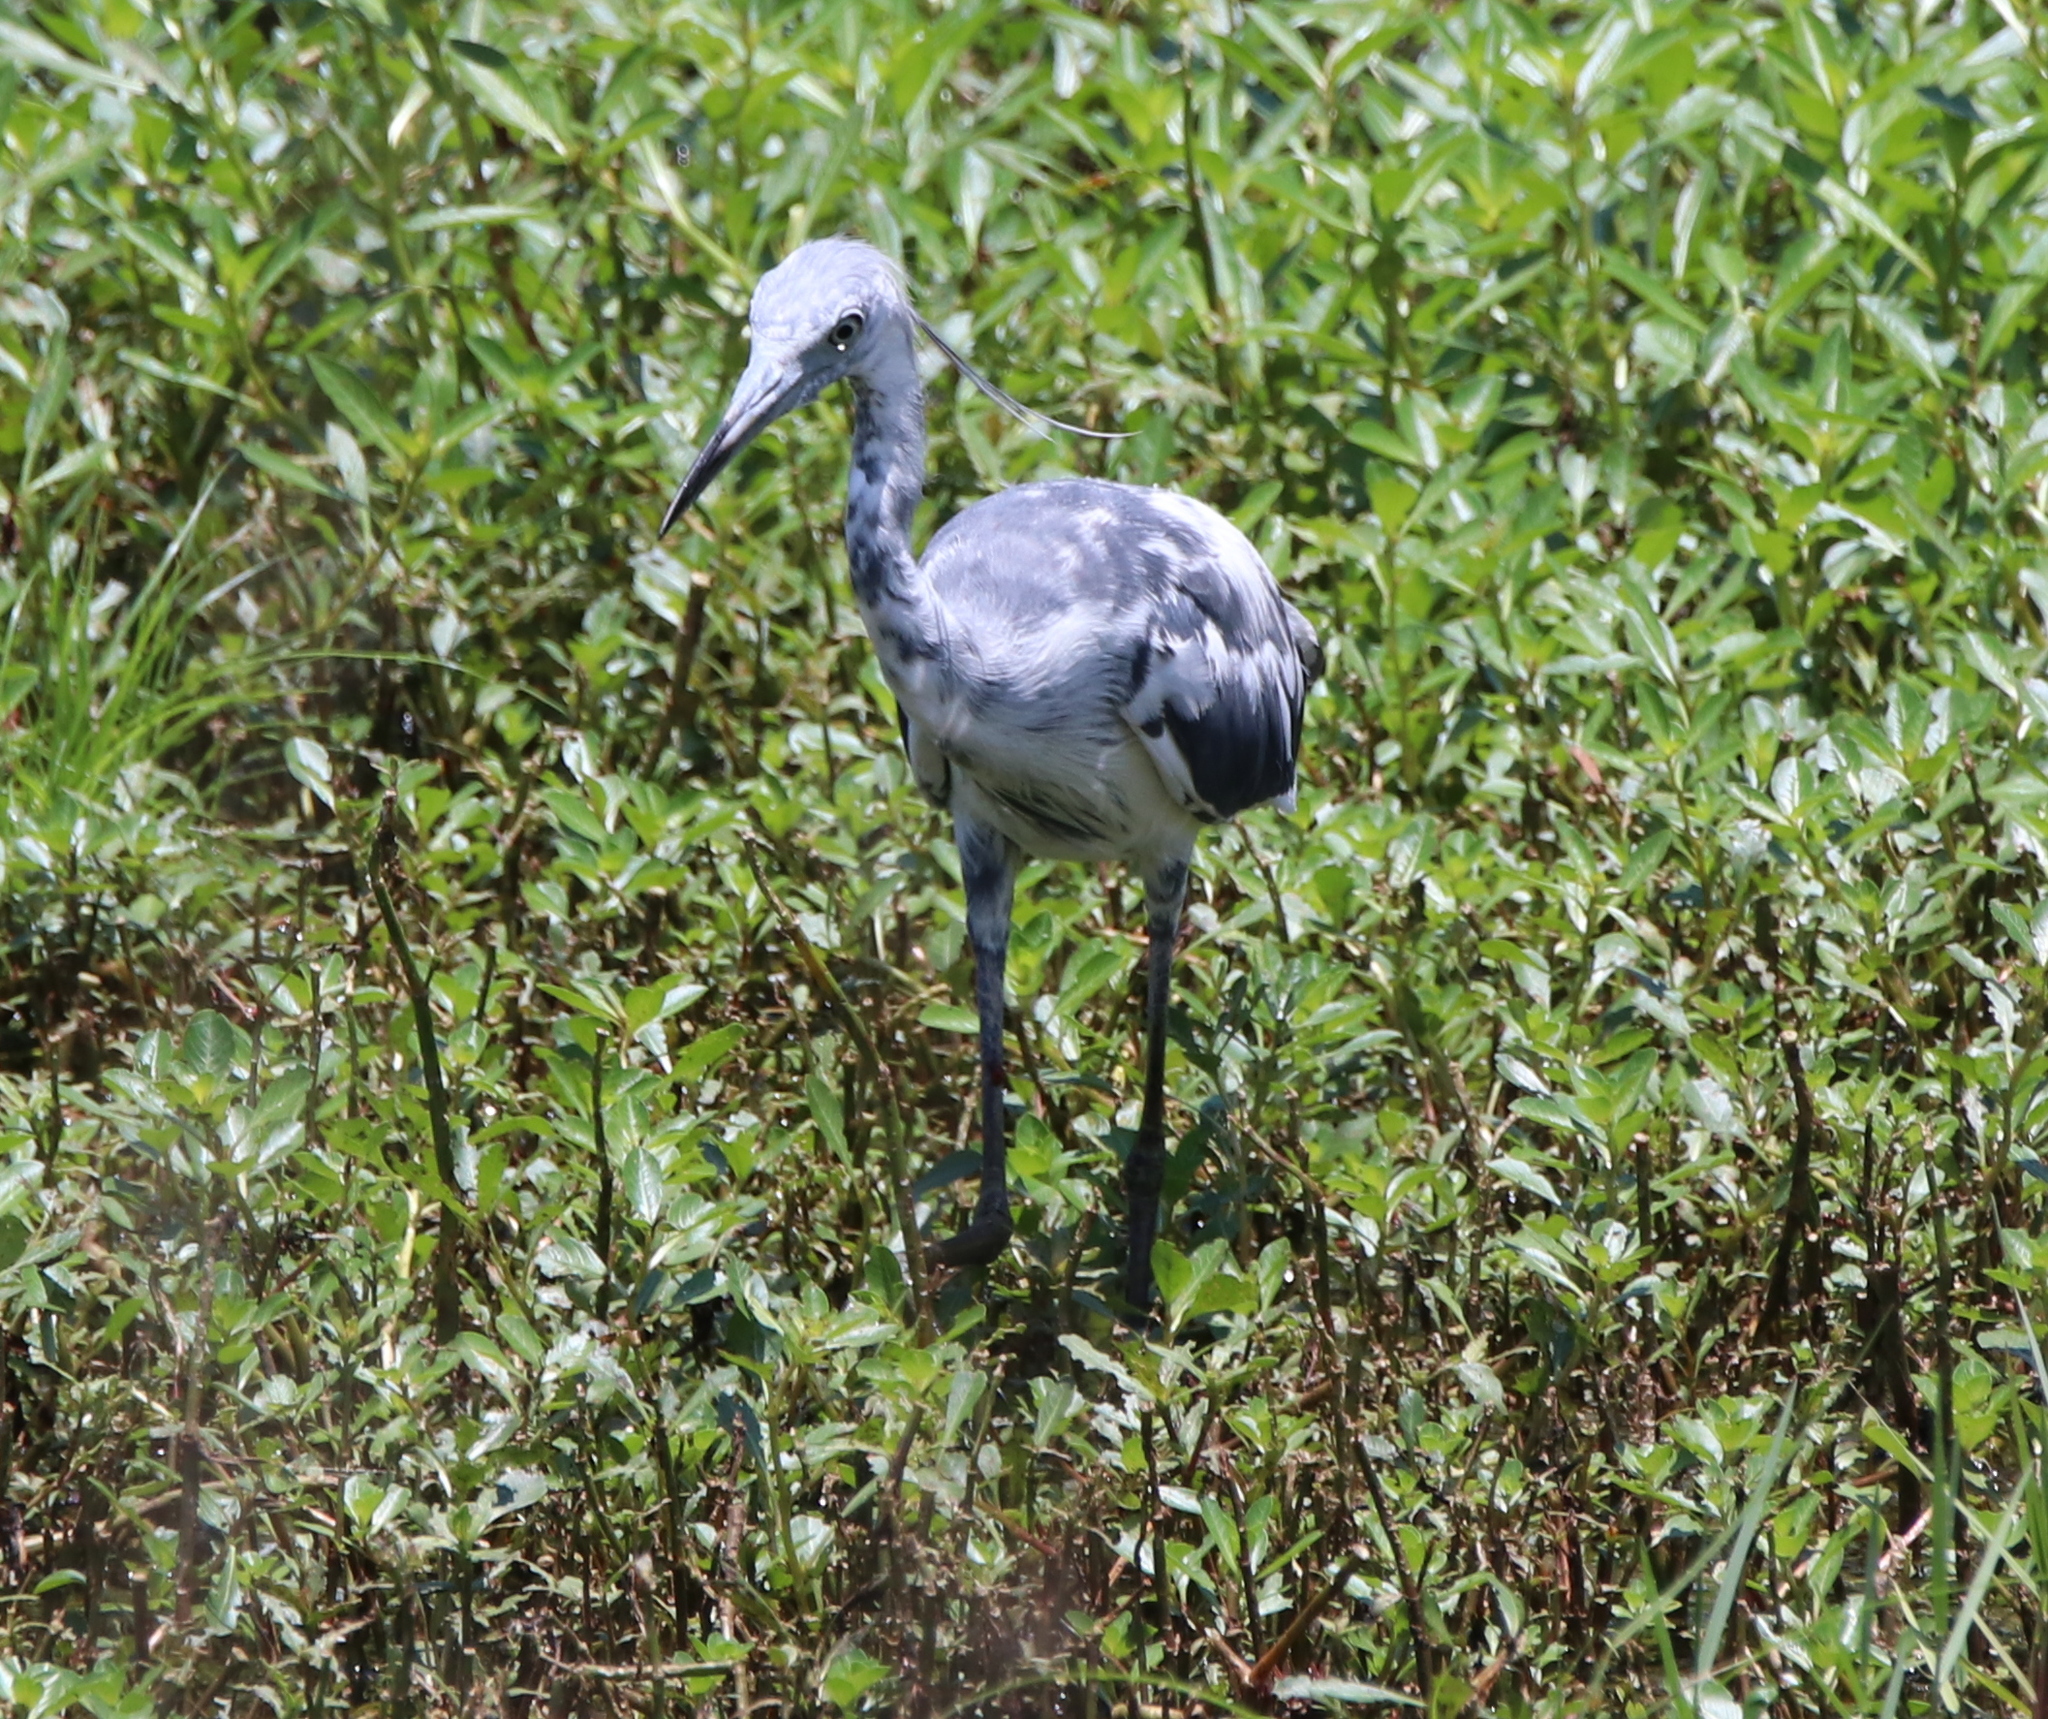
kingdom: Animalia
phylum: Chordata
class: Aves
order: Pelecaniformes
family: Ardeidae
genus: Egretta
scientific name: Egretta caerulea
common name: Little blue heron
